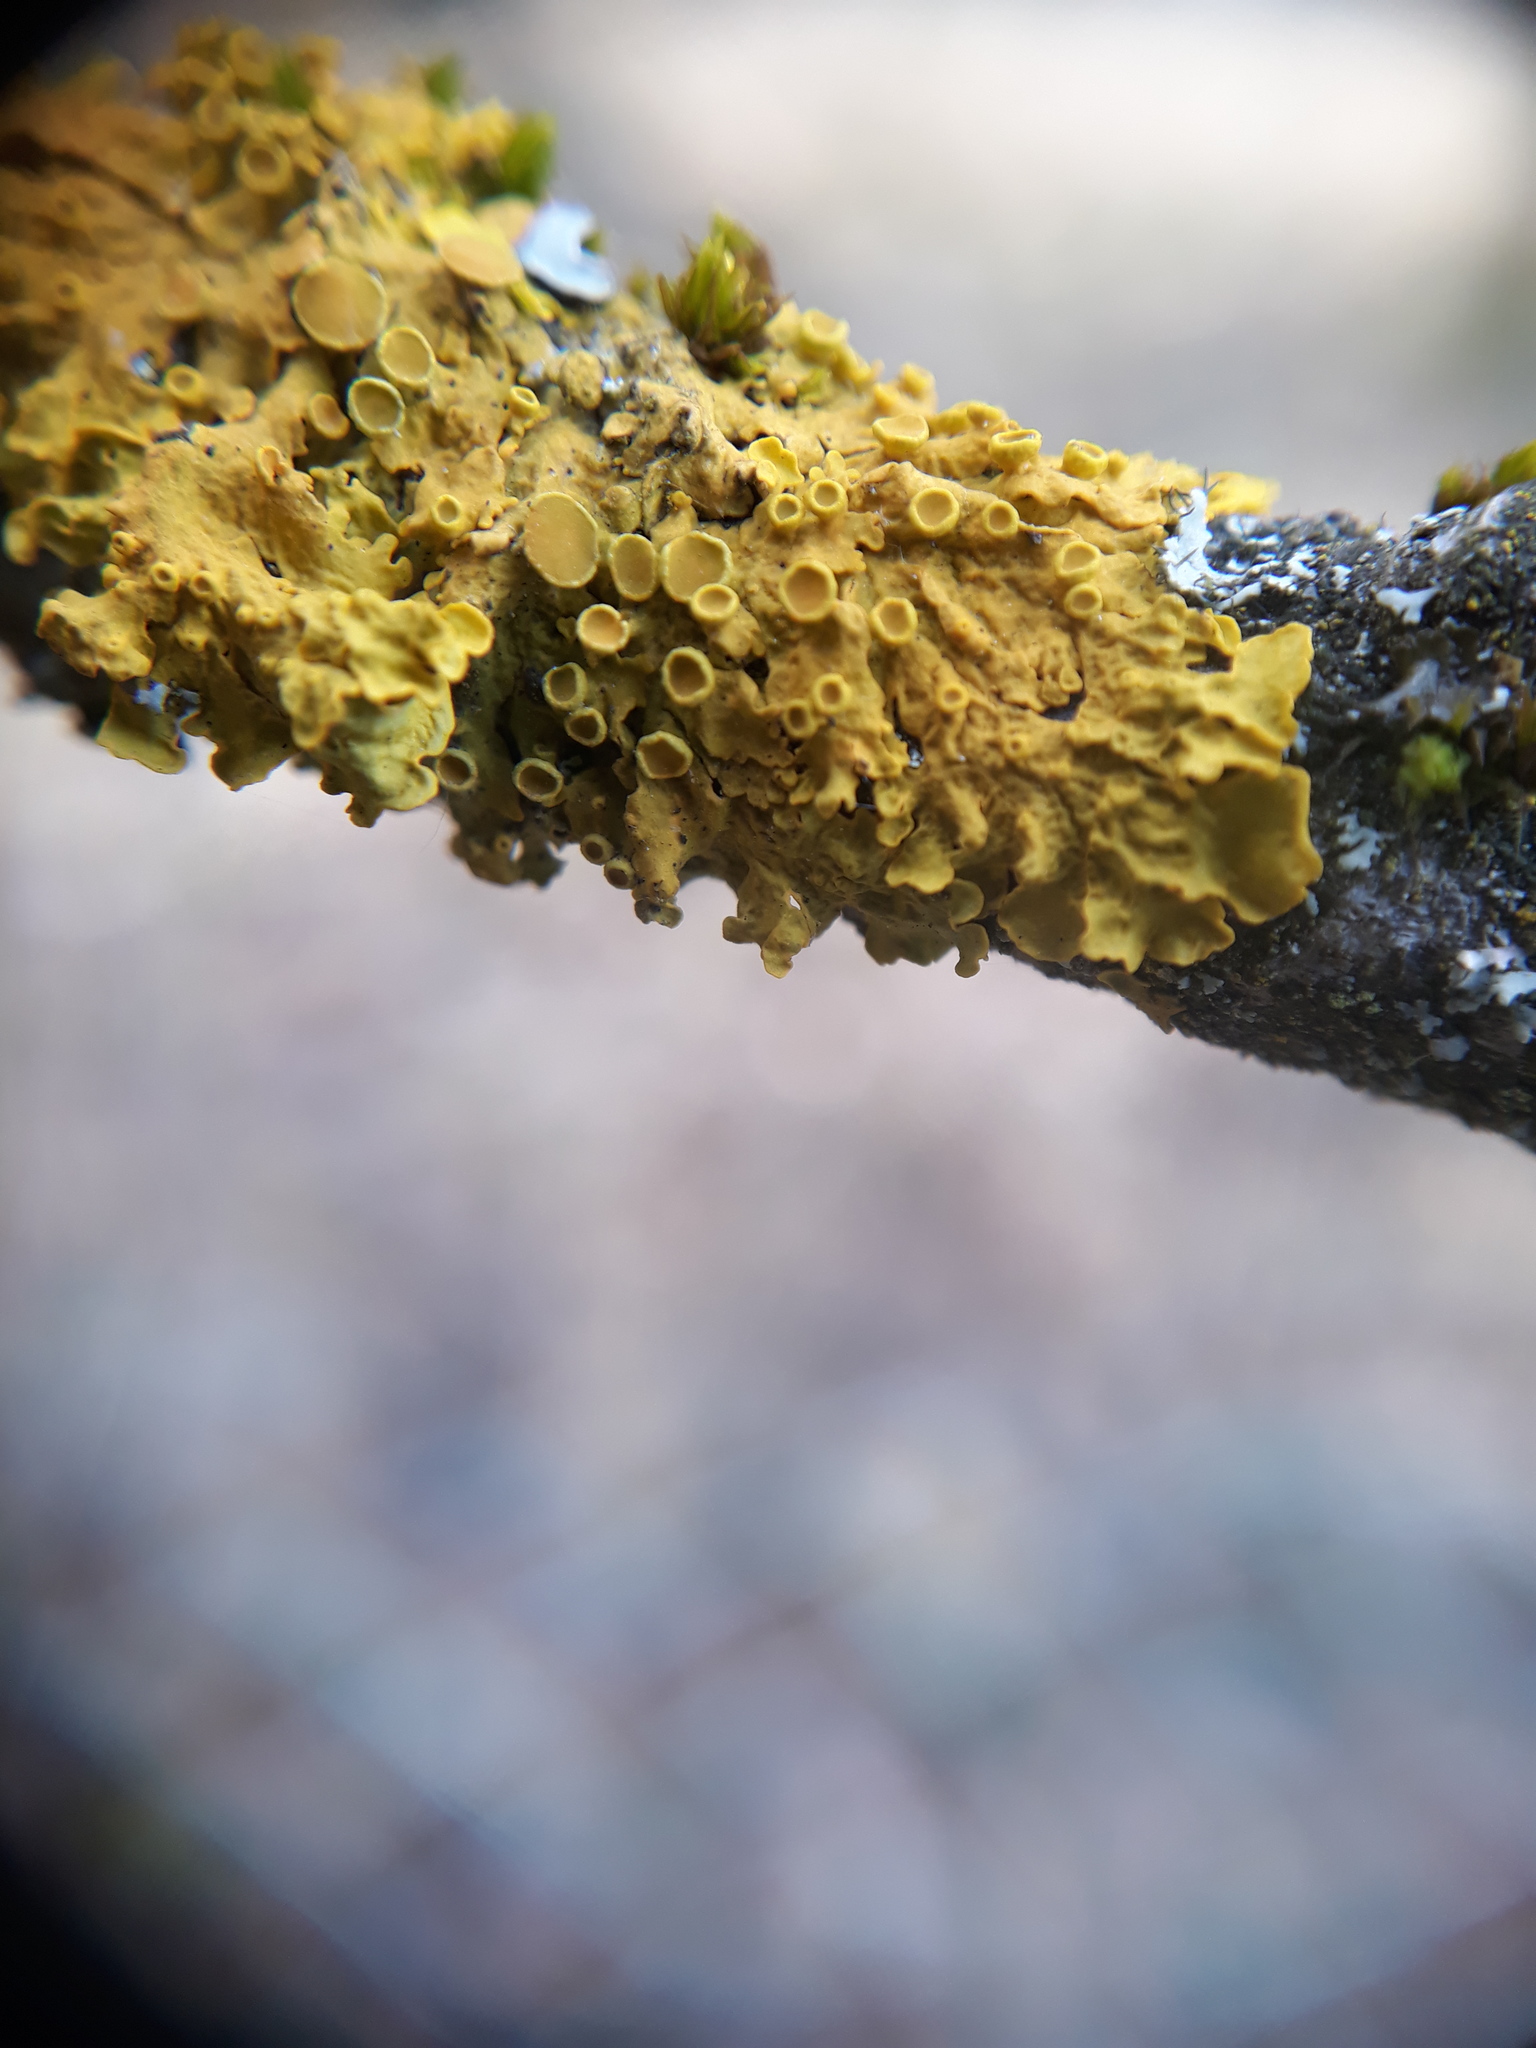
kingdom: Fungi
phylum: Ascomycota
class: Lecanoromycetes
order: Teloschistales
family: Teloschistaceae
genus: Xanthoria
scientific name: Xanthoria parietina
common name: Common orange lichen
